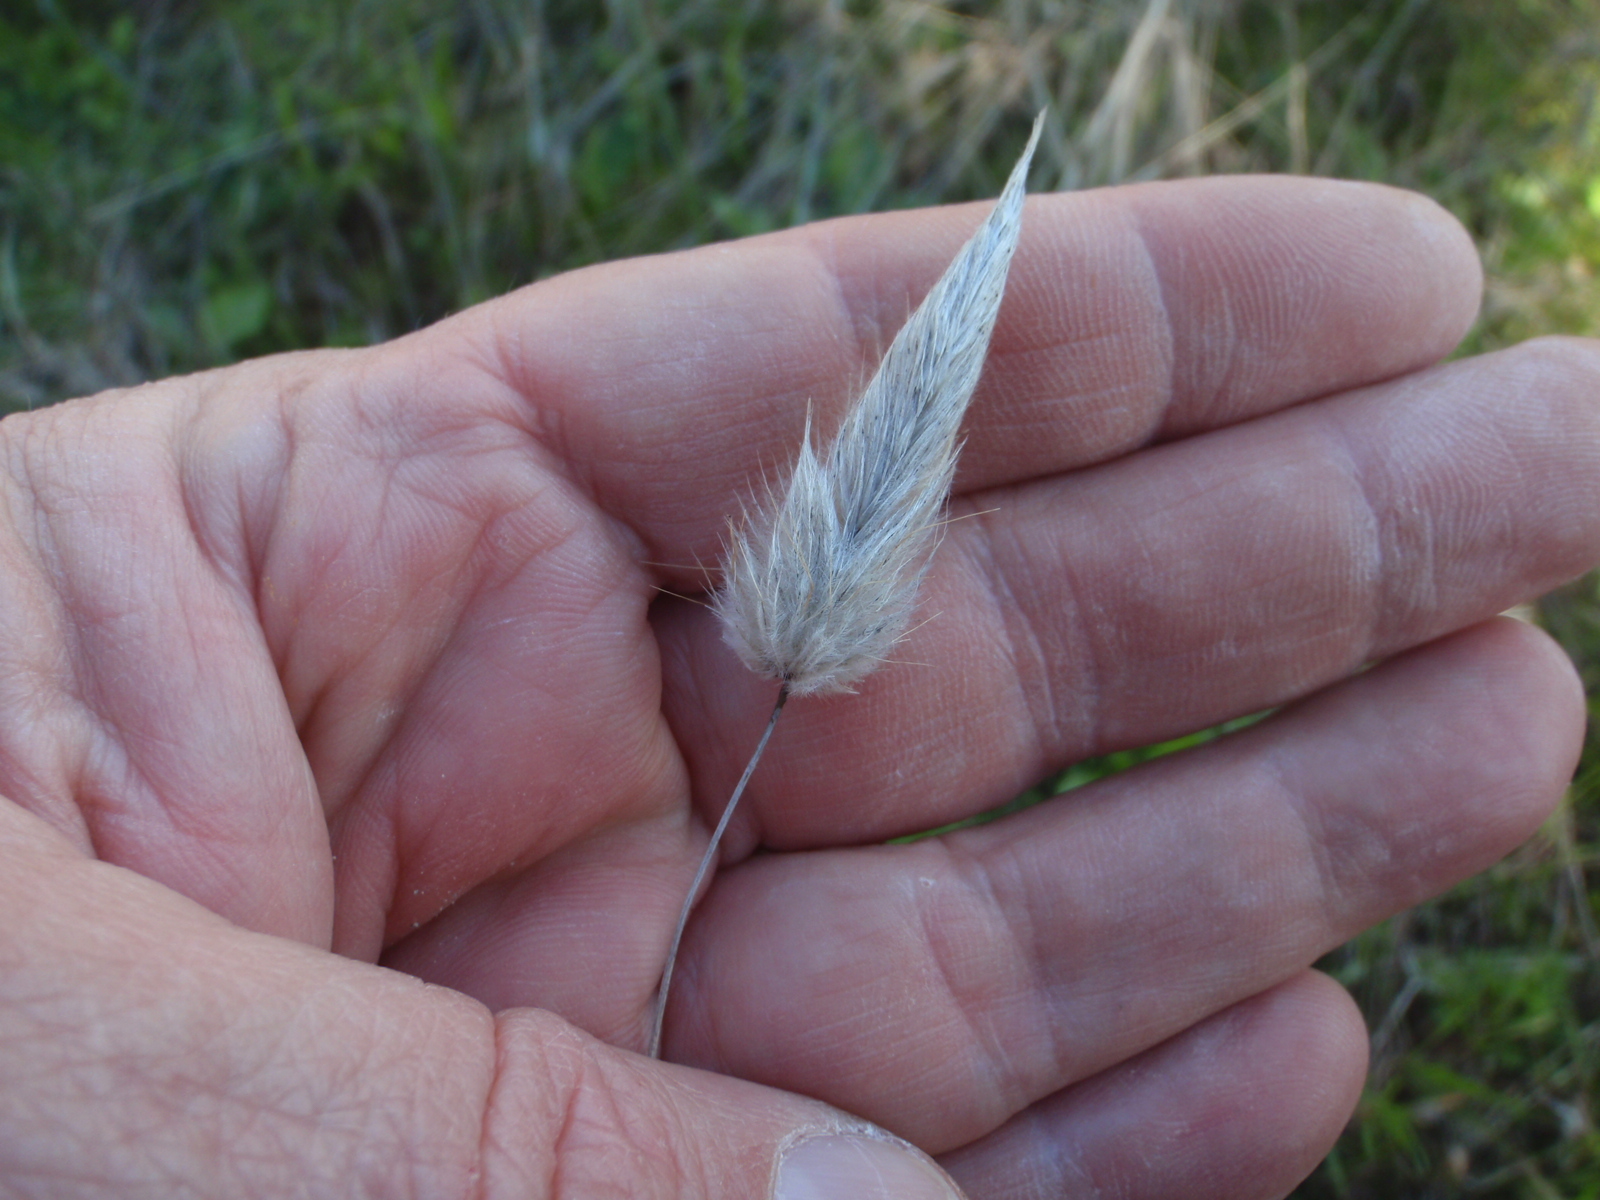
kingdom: Plantae
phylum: Tracheophyta
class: Liliopsida
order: Poales
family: Poaceae
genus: Lagurus
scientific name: Lagurus ovatus
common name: Hare's-tail
